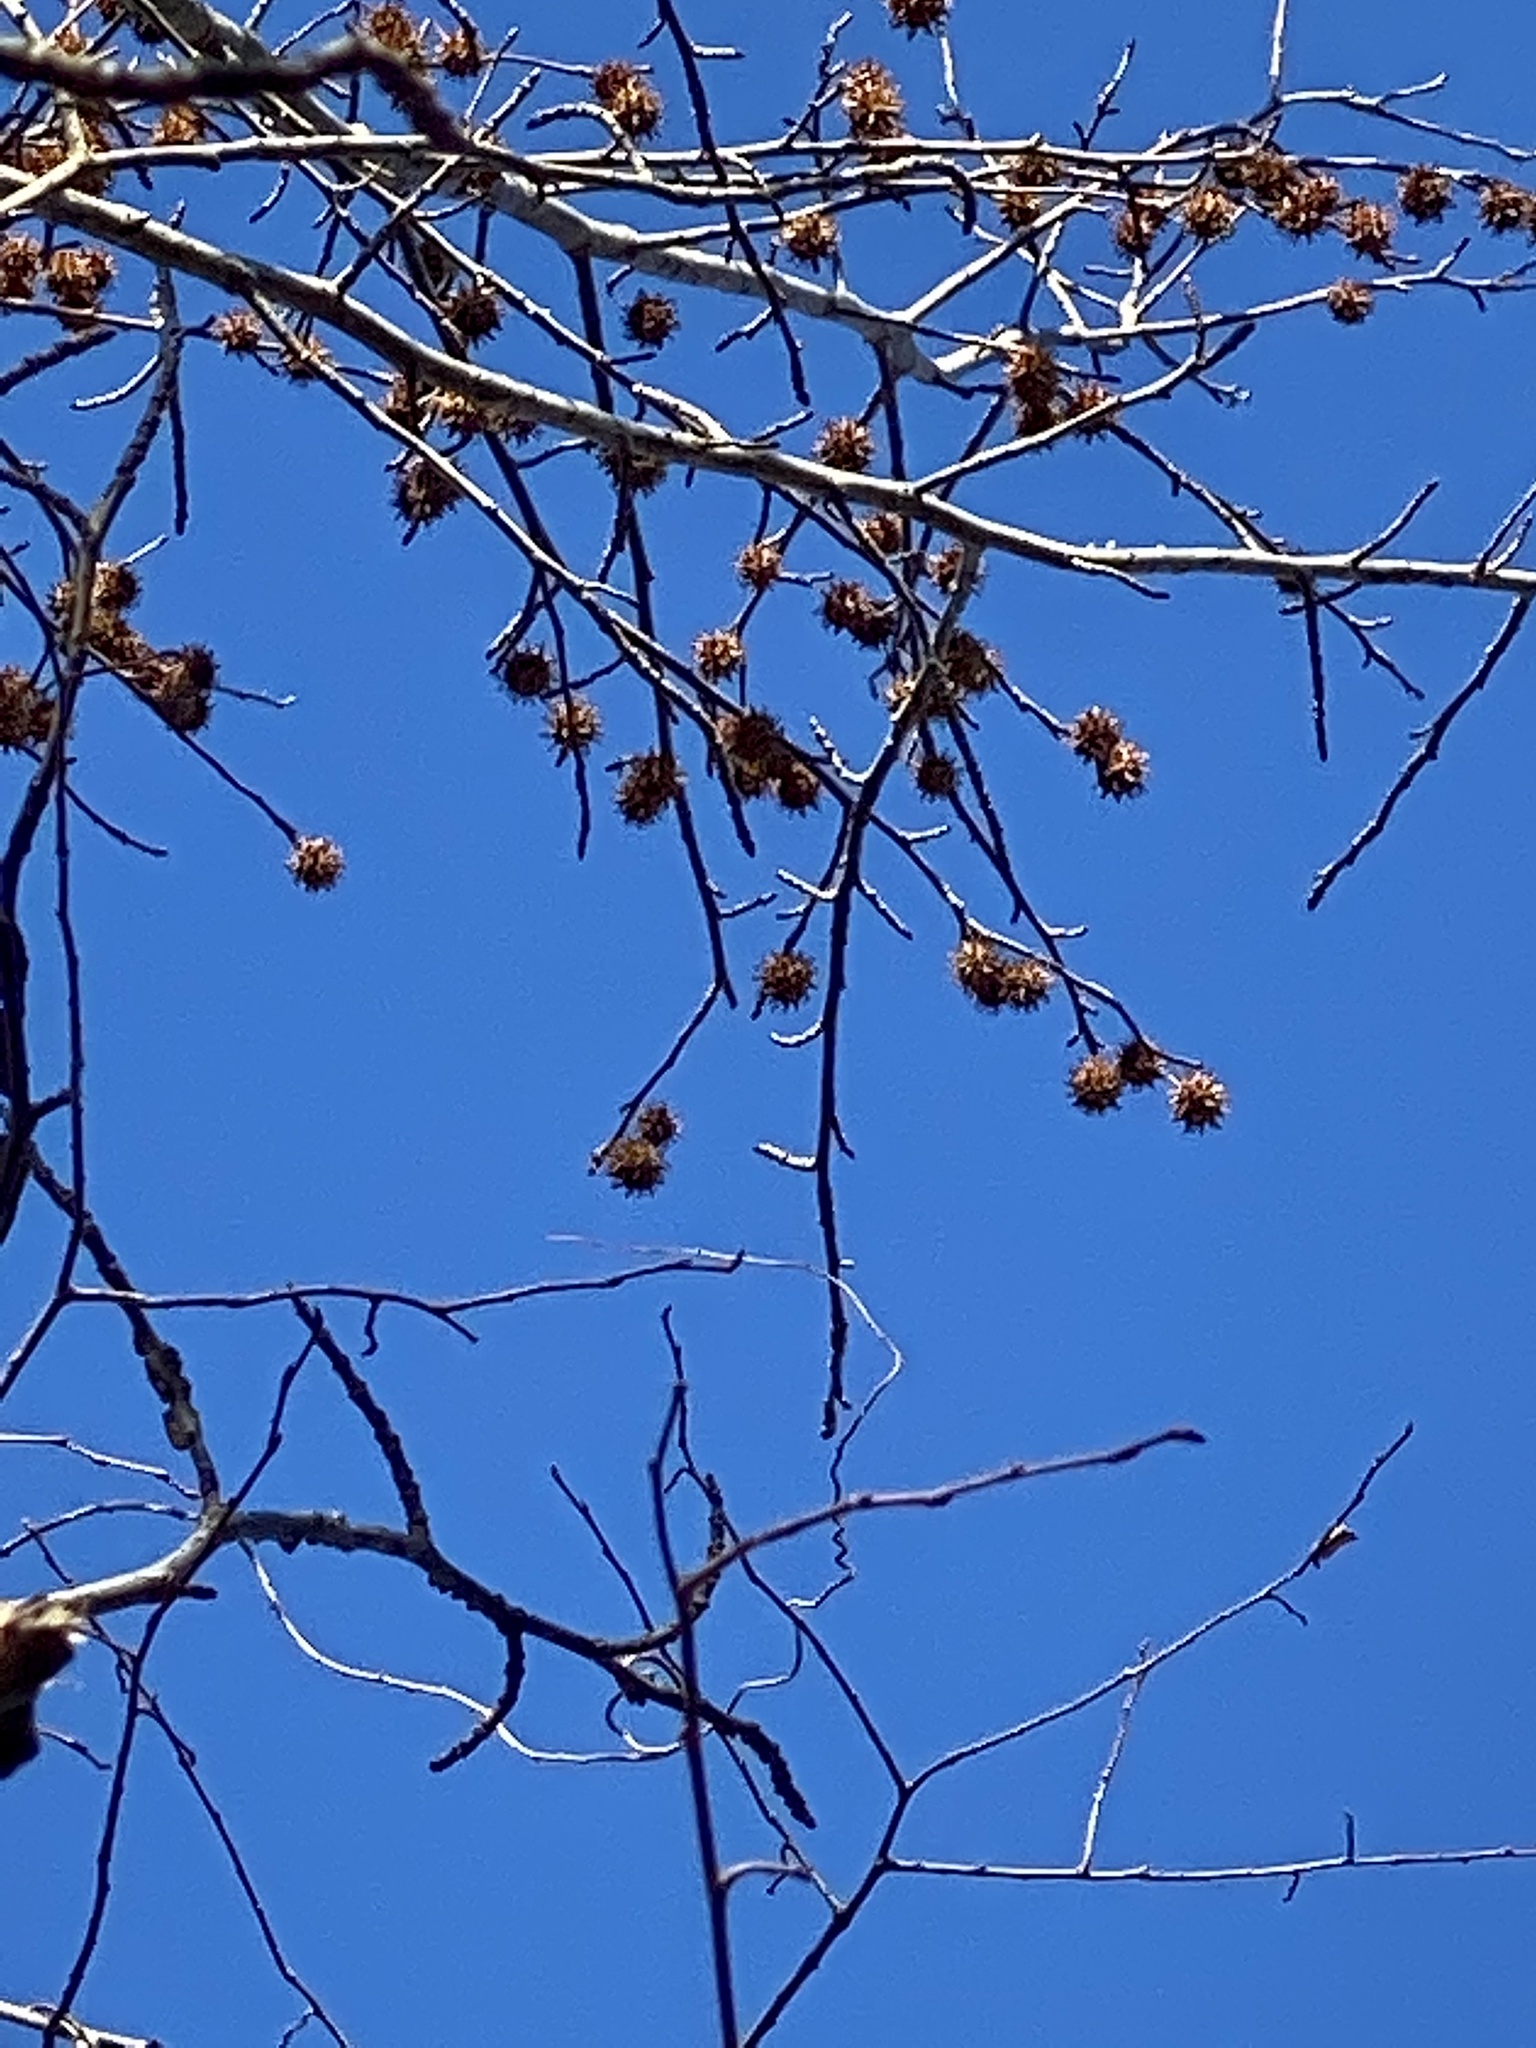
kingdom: Plantae
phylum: Tracheophyta
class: Magnoliopsida
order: Saxifragales
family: Altingiaceae
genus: Liquidambar
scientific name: Liquidambar styraciflua
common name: Sweet gum
